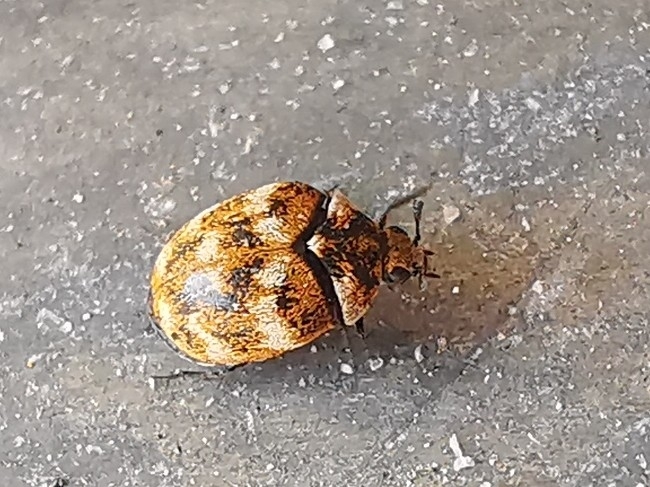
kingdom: Animalia
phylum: Arthropoda
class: Insecta
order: Coleoptera
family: Dermestidae
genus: Anthrenus
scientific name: Anthrenus verbasci
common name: Varied carpet beetle
